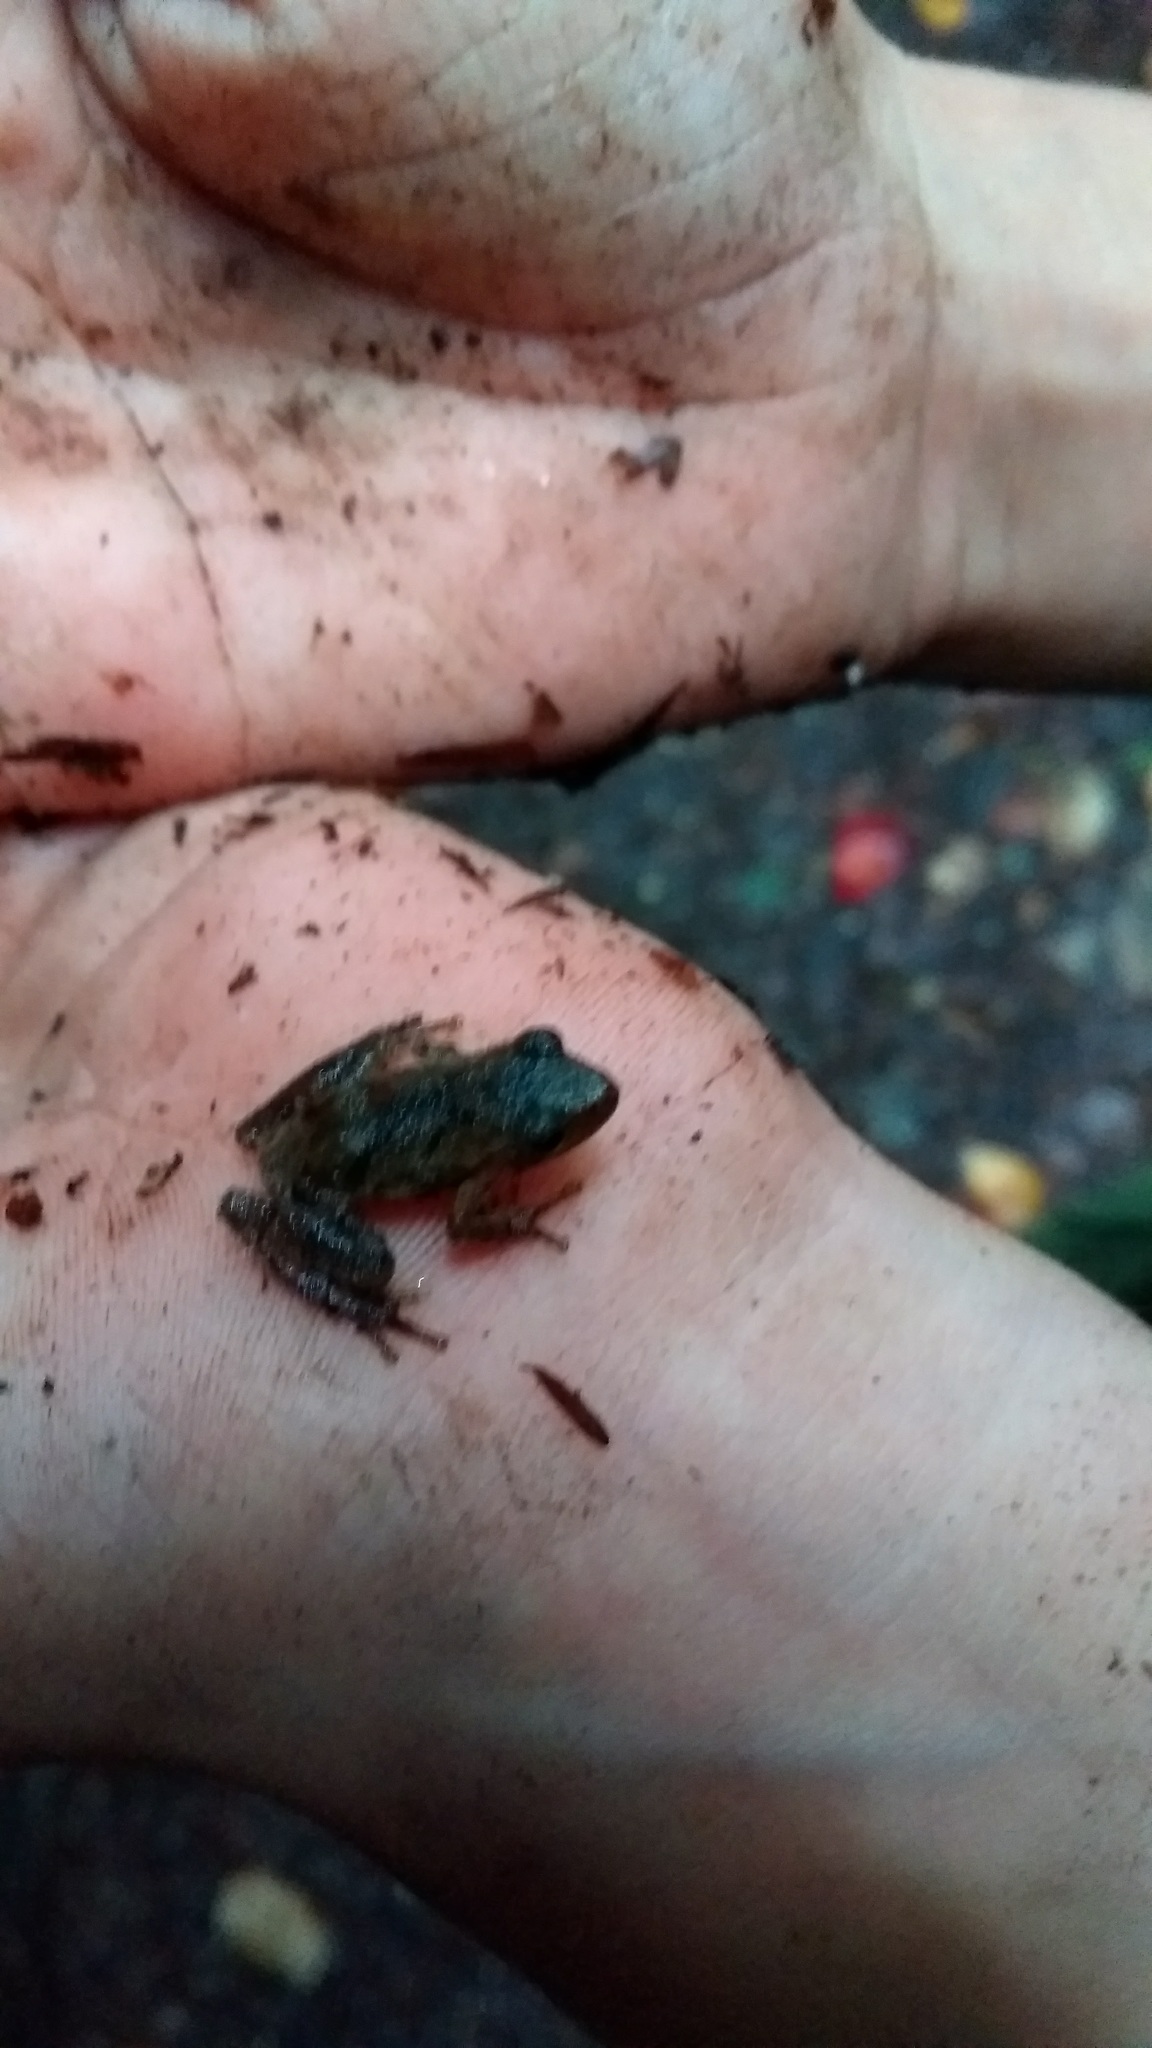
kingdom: Animalia
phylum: Chordata
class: Amphibia
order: Anura
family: Hylidae
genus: Pseudacris
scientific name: Pseudacris crucifer
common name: Spring peeper
